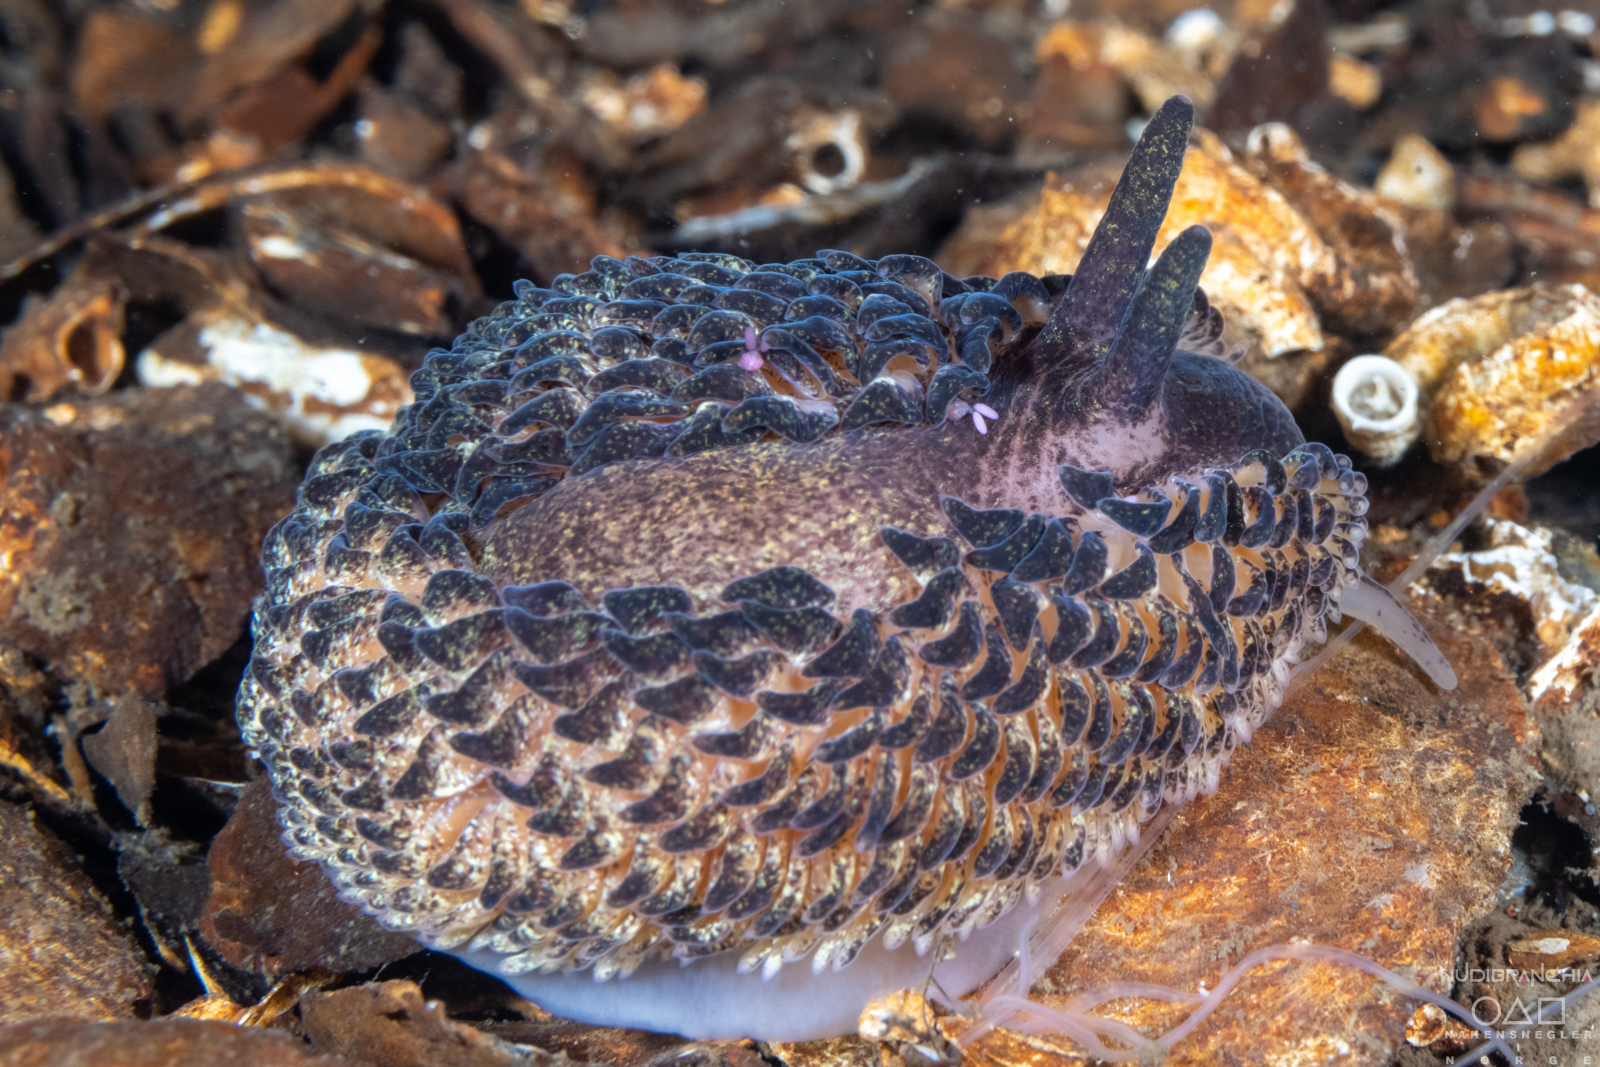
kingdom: Animalia
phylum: Mollusca
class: Gastropoda
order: Nudibranchia
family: Aeolidiidae
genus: Aeolidia
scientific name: Aeolidia papillosa
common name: Common grey sea slug
